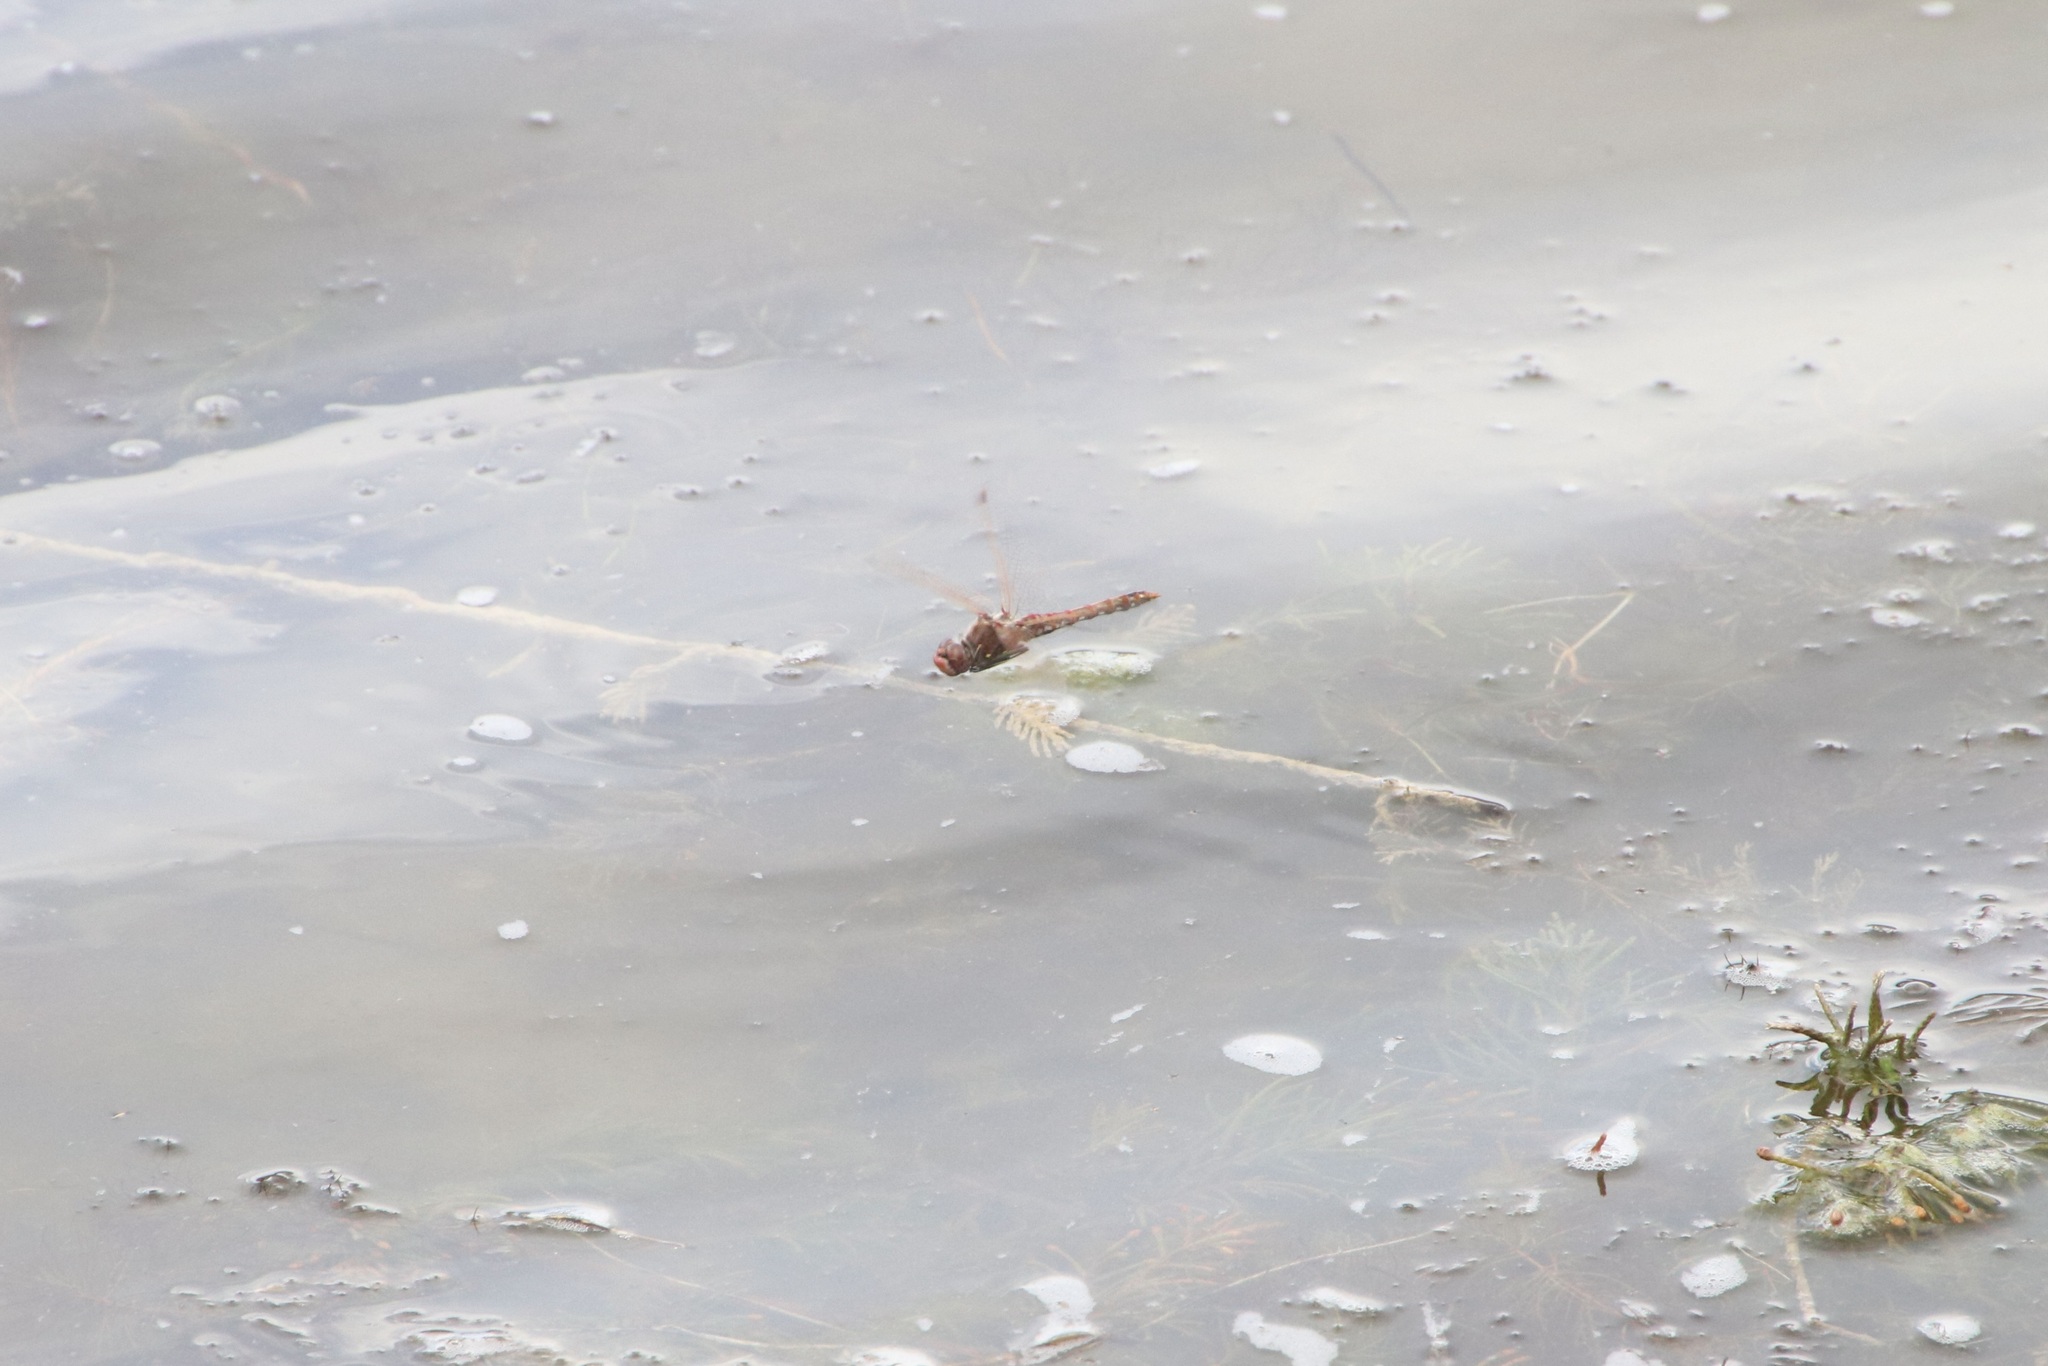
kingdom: Animalia
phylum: Arthropoda
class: Insecta
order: Odonata
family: Libellulidae
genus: Sympetrum
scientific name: Sympetrum corruptum
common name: Variegated meadowhawk
